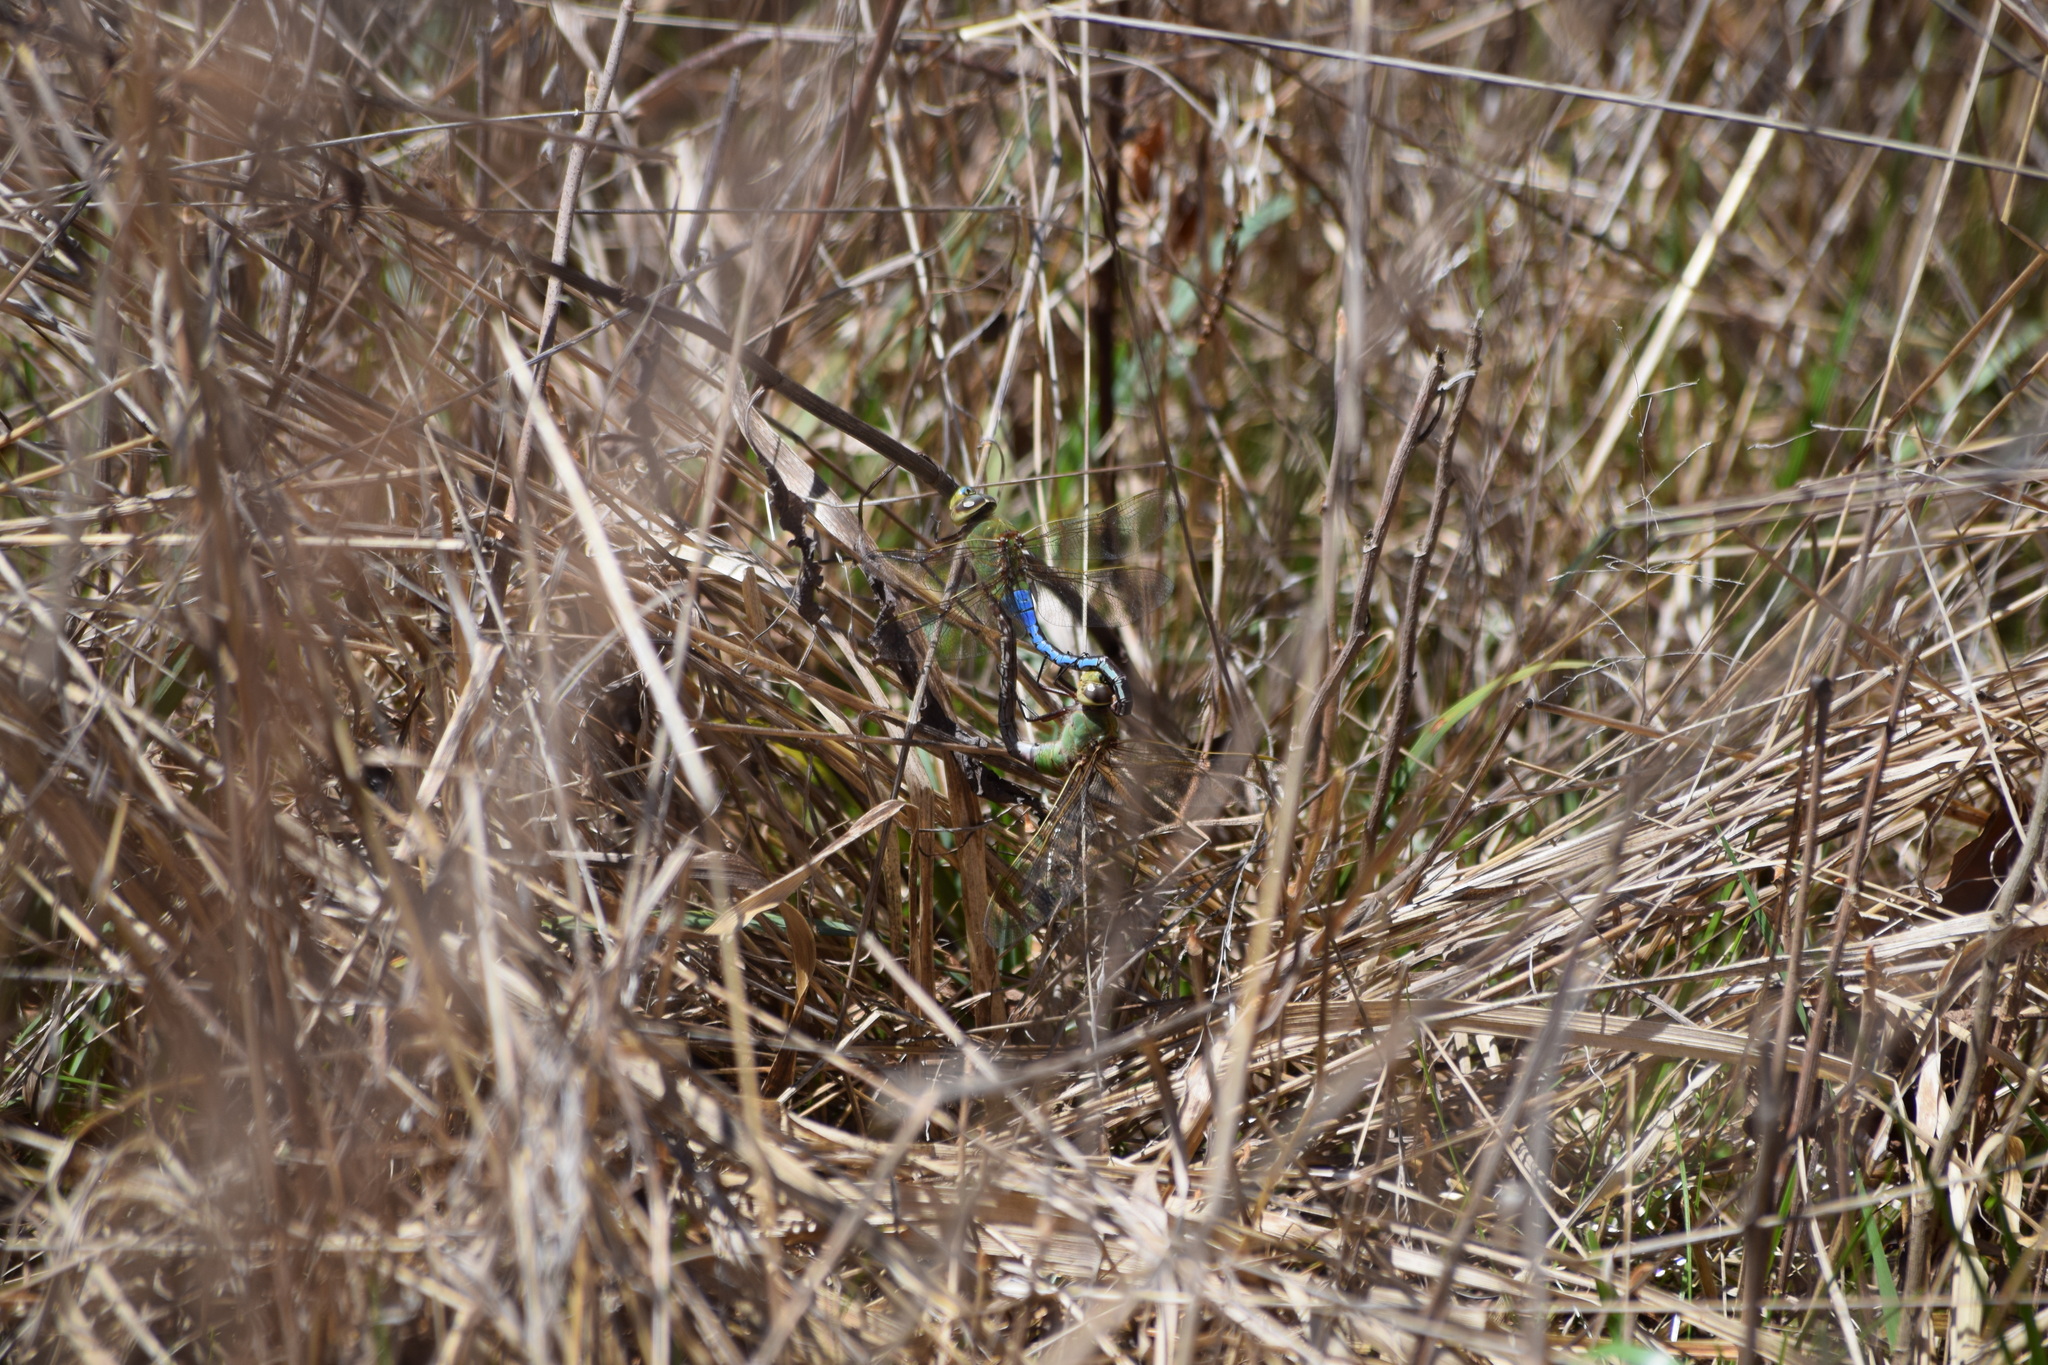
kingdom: Animalia
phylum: Arthropoda
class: Insecta
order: Odonata
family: Aeshnidae
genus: Anax
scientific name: Anax junius
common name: Common green darner
